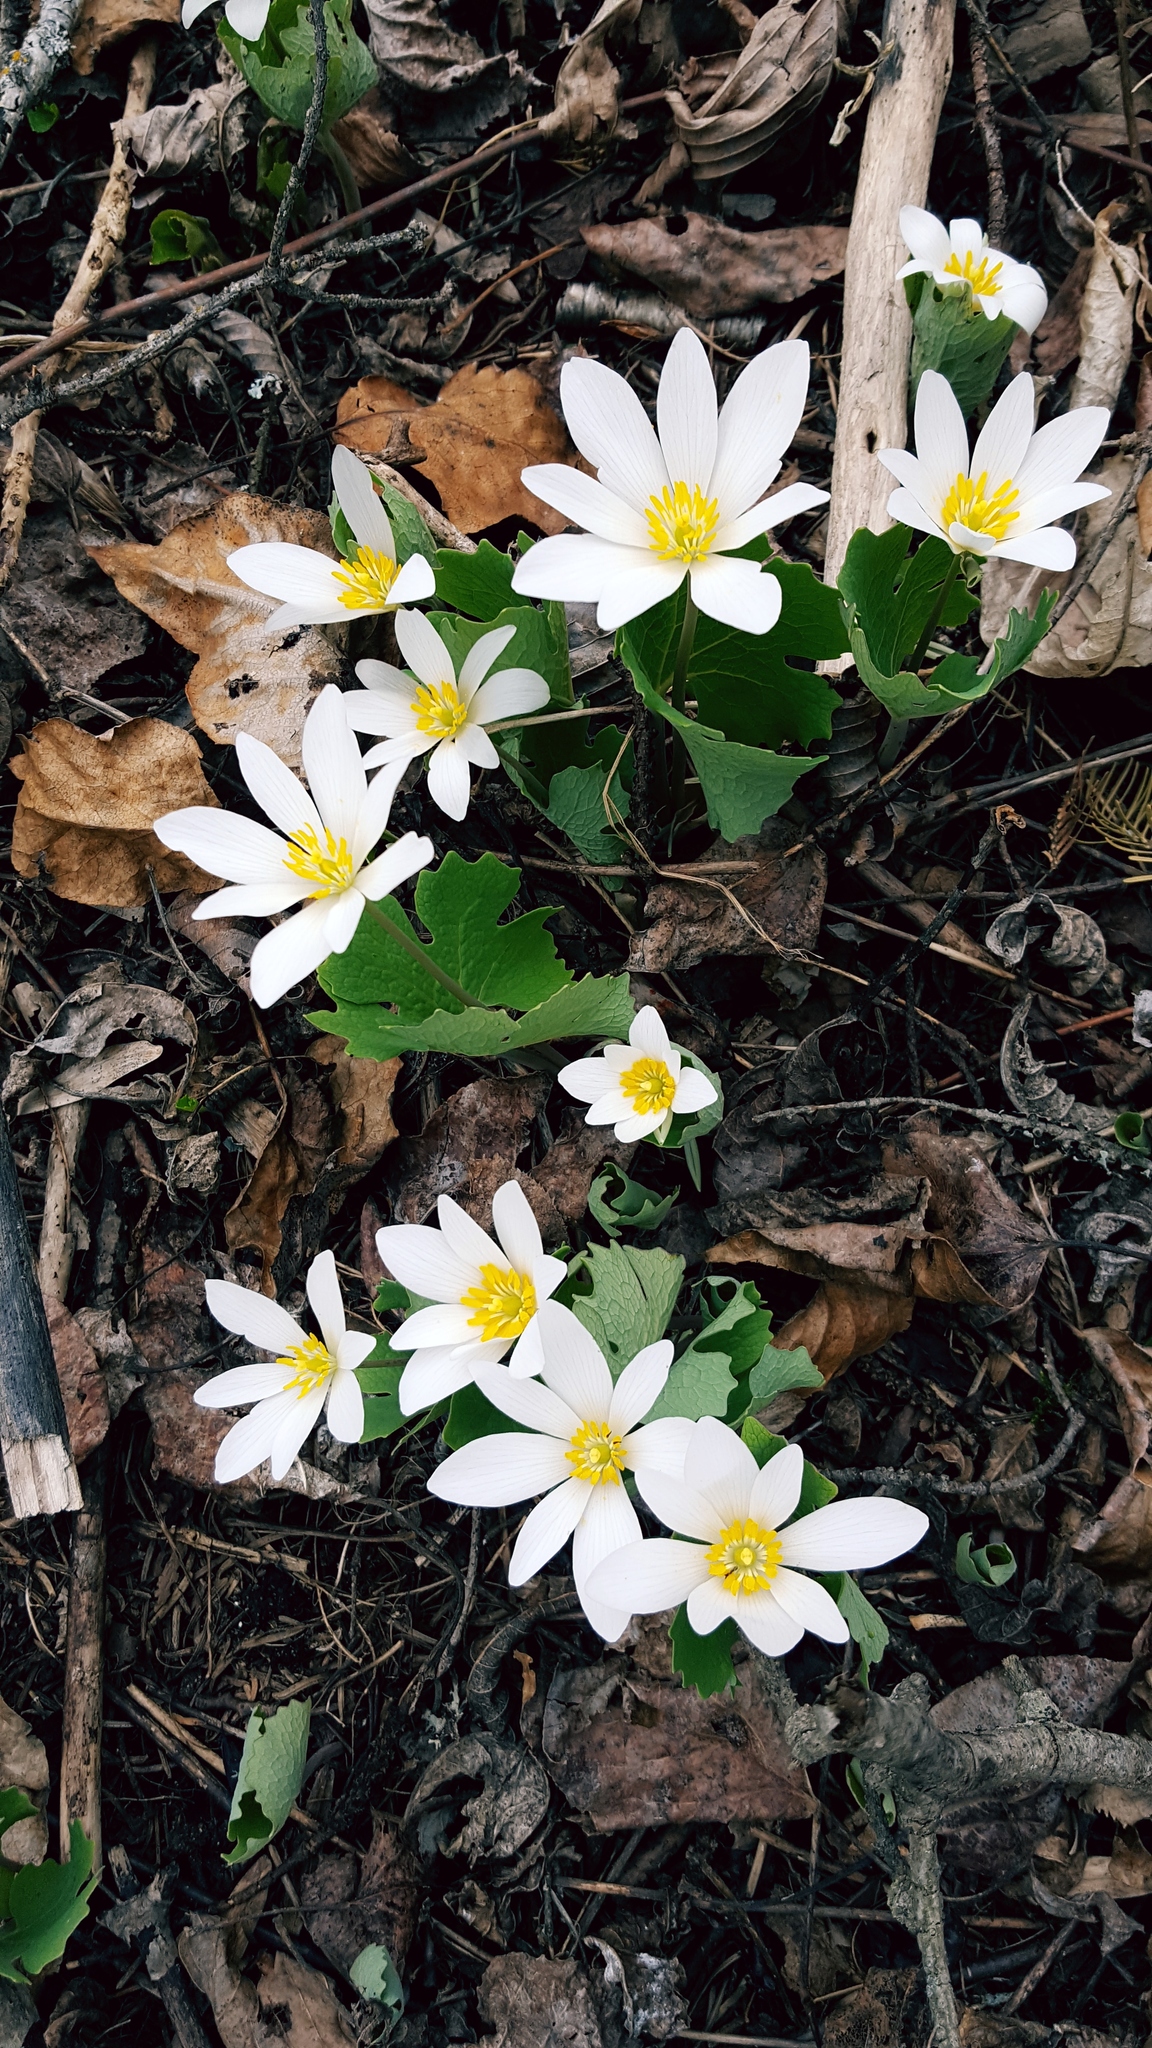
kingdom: Plantae
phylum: Tracheophyta
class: Magnoliopsida
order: Ranunculales
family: Papaveraceae
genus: Sanguinaria
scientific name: Sanguinaria canadensis
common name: Bloodroot
